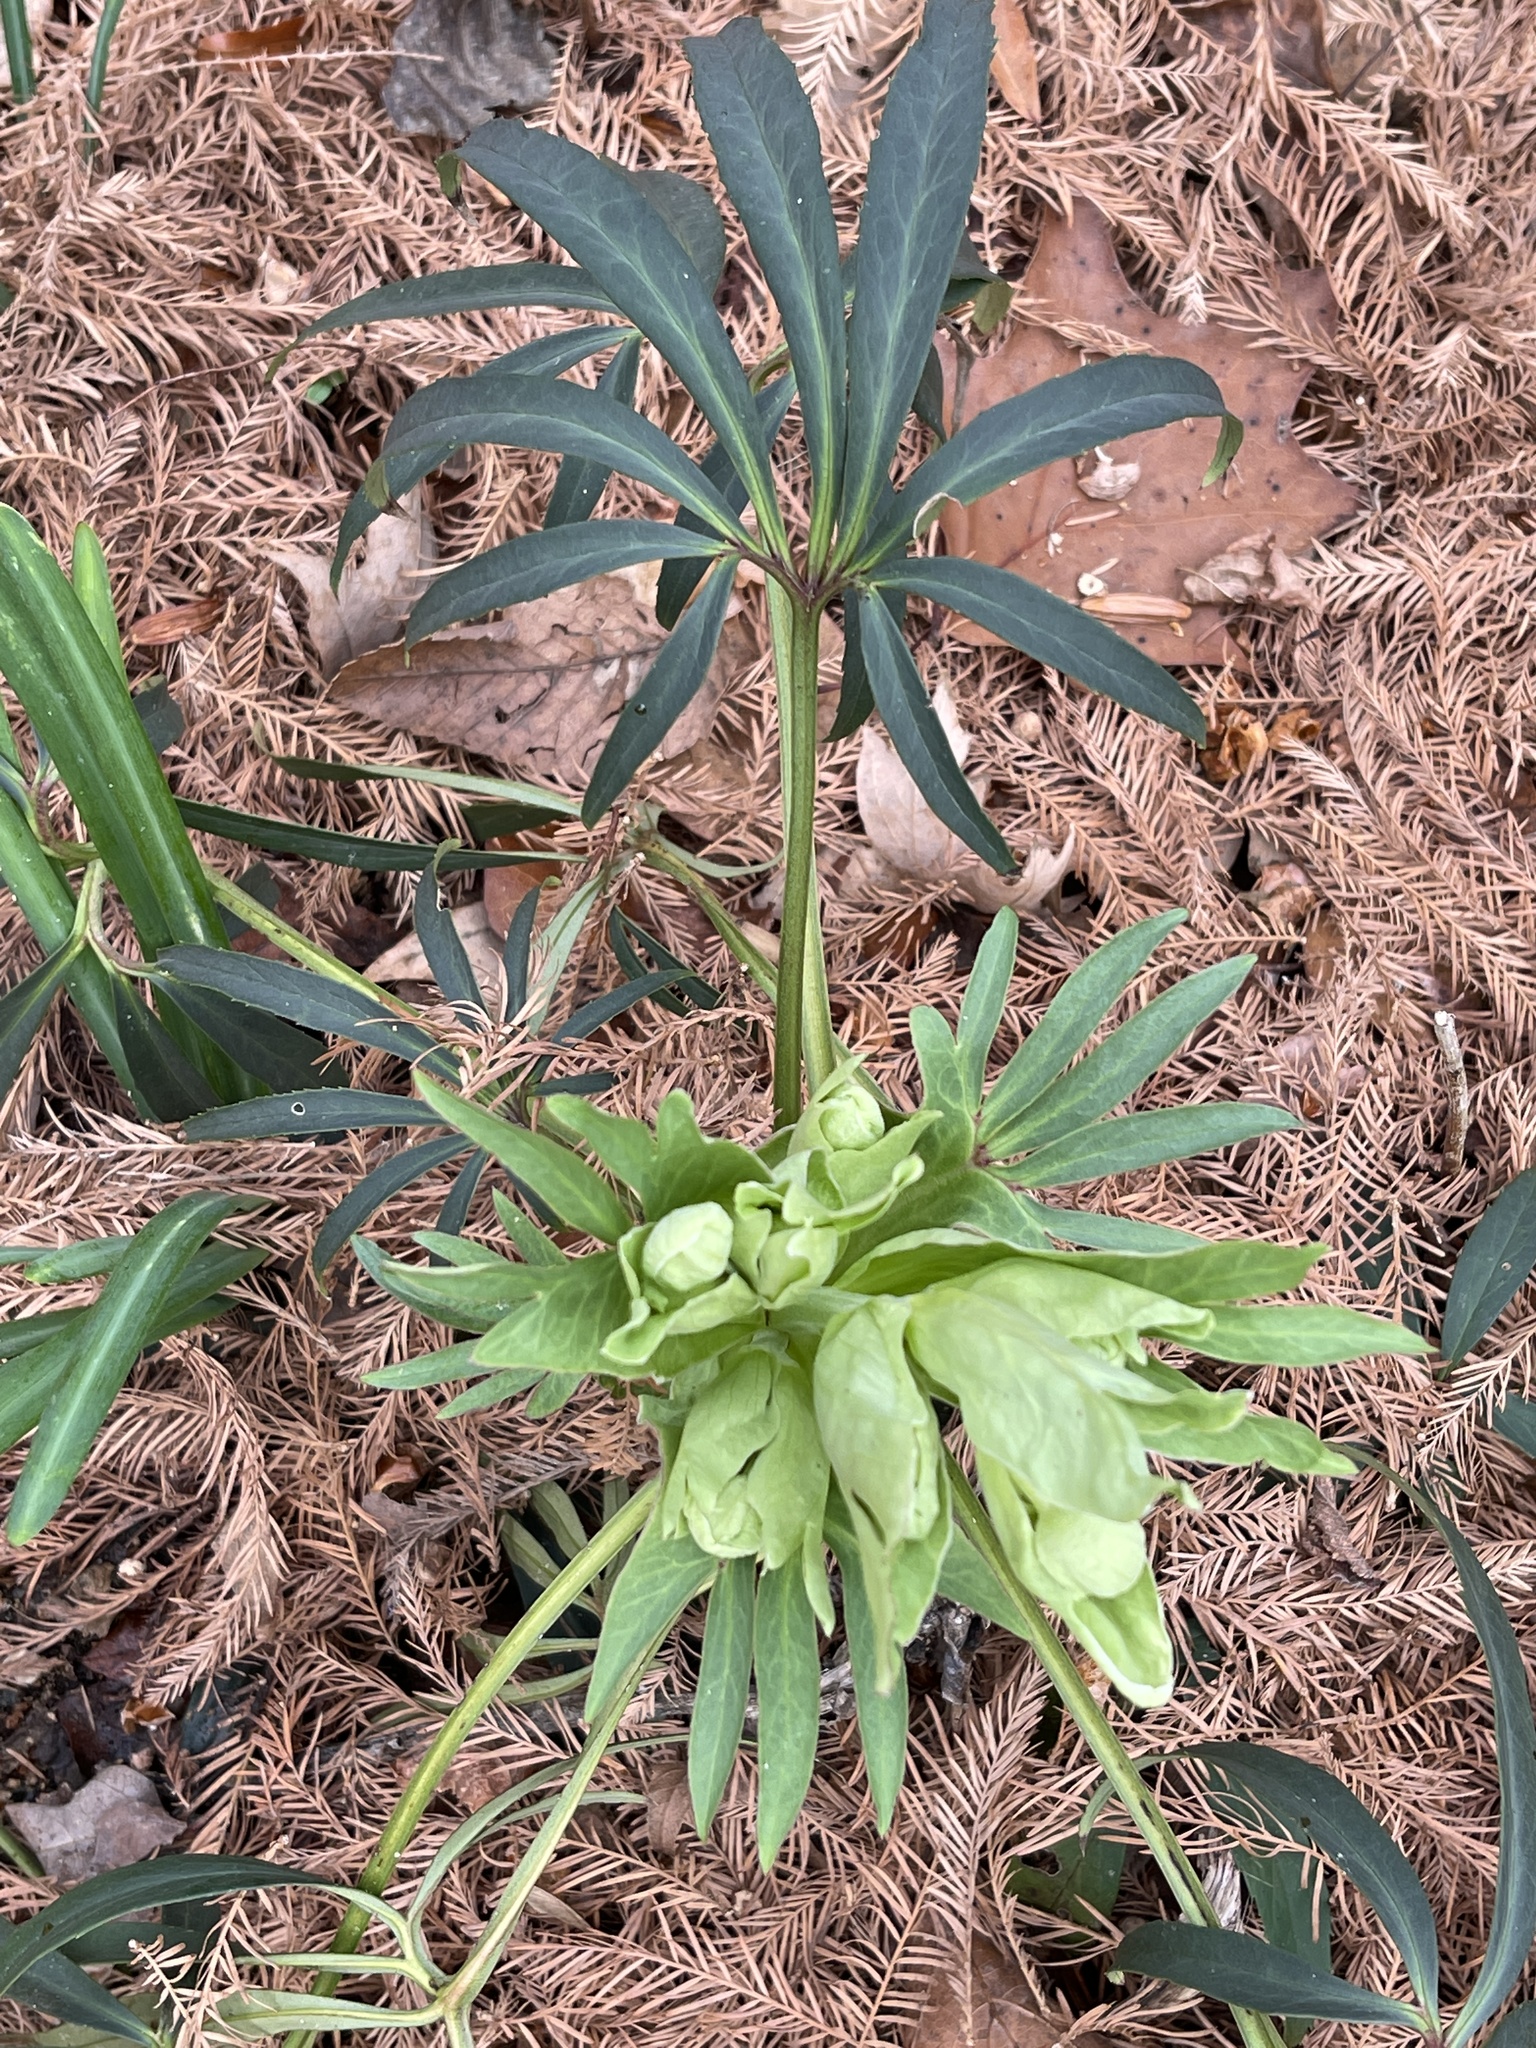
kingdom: Plantae
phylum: Tracheophyta
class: Magnoliopsida
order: Ranunculales
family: Ranunculaceae
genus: Helleborus
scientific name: Helleborus foetidus
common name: Stinking hellebore
